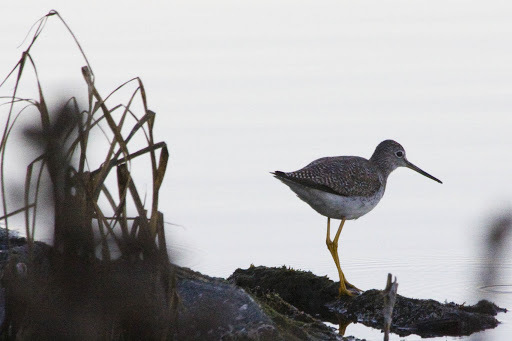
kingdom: Animalia
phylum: Chordata
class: Aves
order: Charadriiformes
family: Scolopacidae
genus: Tringa
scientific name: Tringa melanoleuca
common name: Greater yellowlegs
